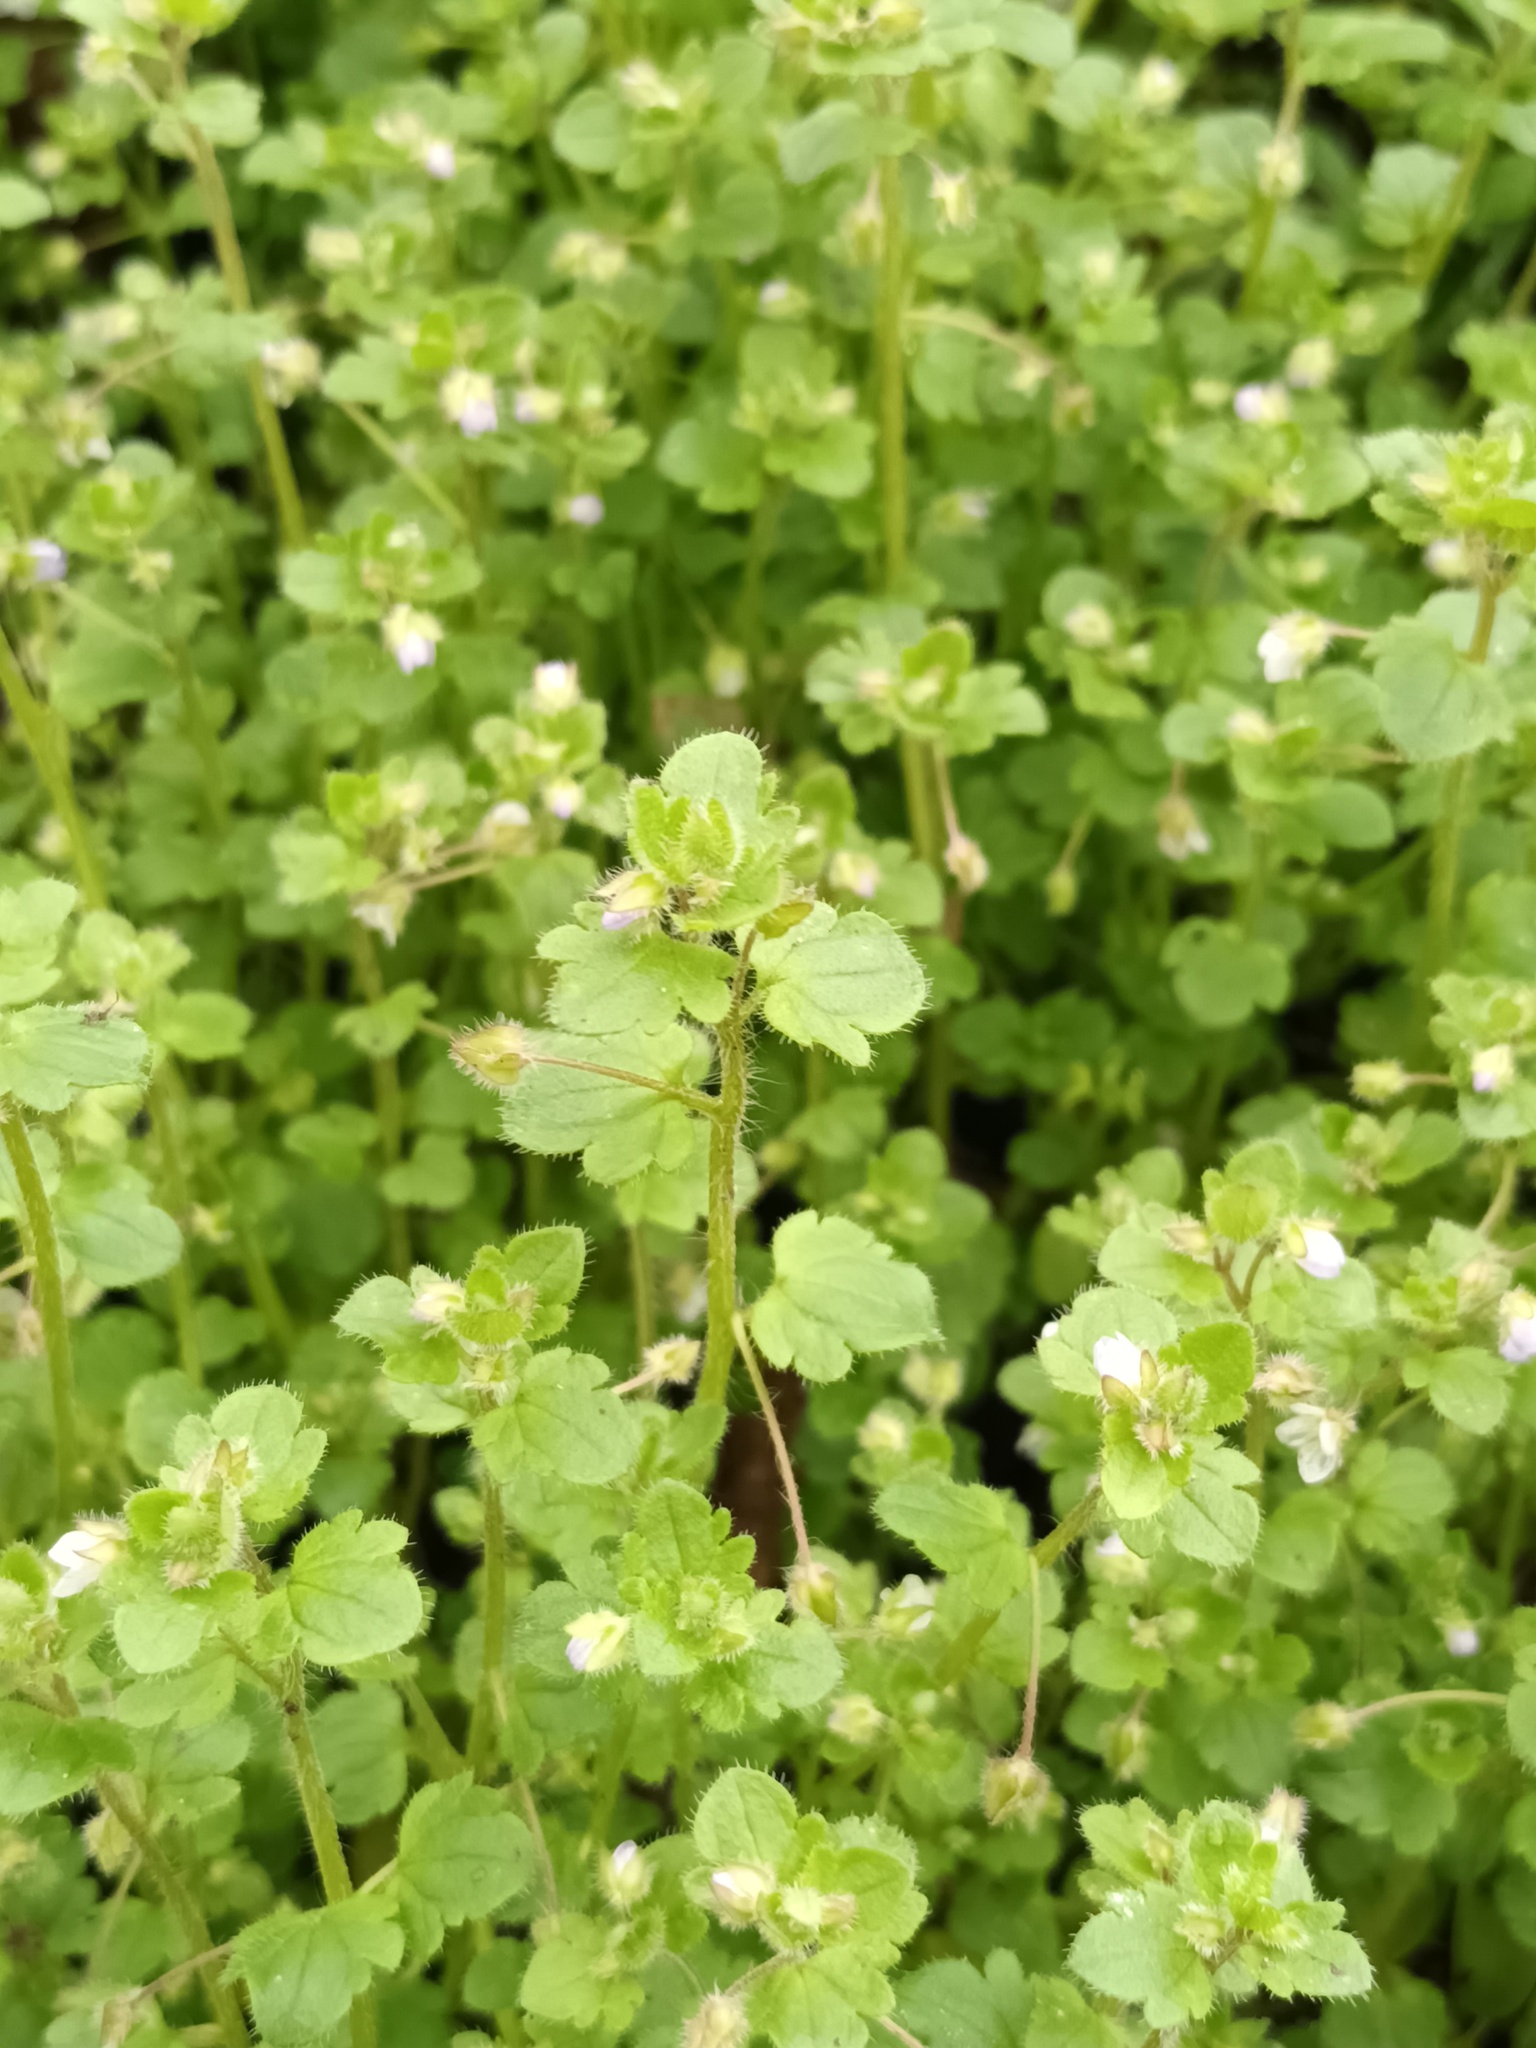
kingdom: Plantae
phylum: Tracheophyta
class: Magnoliopsida
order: Lamiales
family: Plantaginaceae
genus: Veronica
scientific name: Veronica sublobata
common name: False ivy-leaved speedwell
